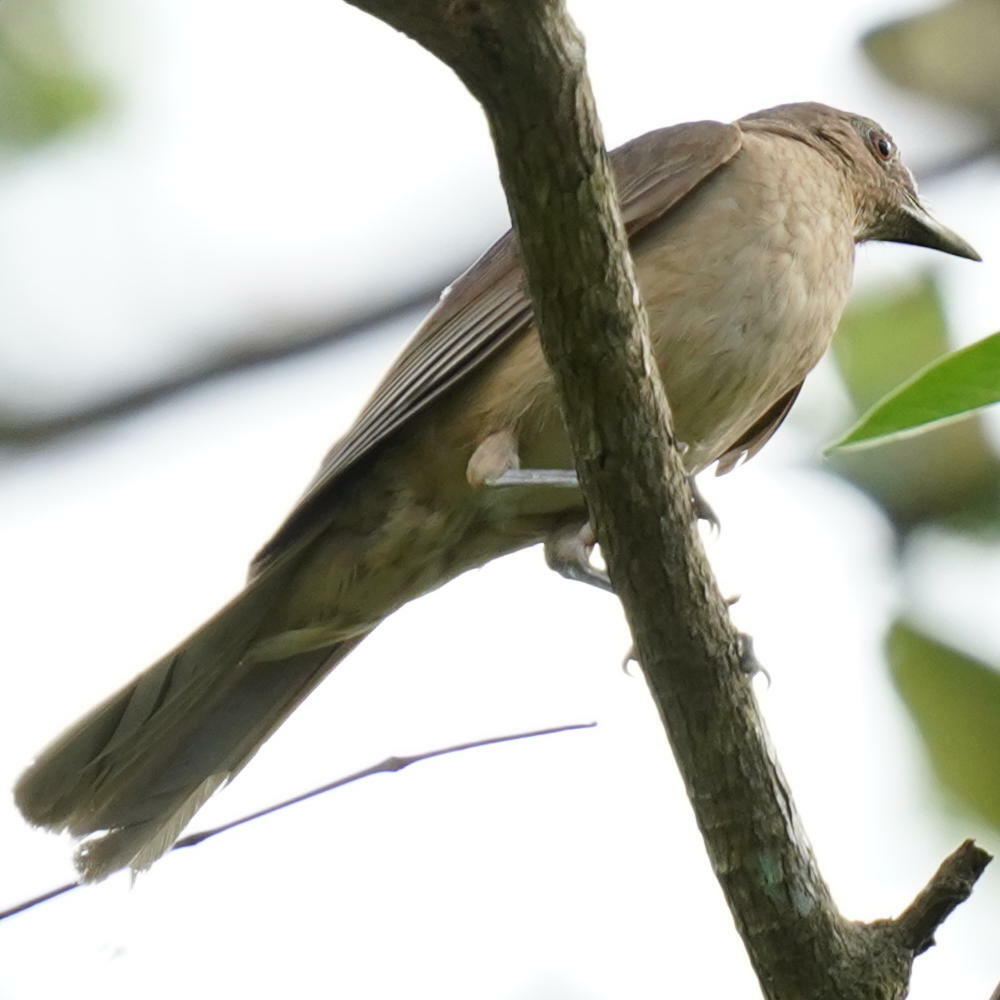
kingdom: Animalia
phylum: Chordata
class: Aves
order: Passeriformes
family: Turdidae
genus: Turdus
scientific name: Turdus grayi
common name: Clay-colored thrush
